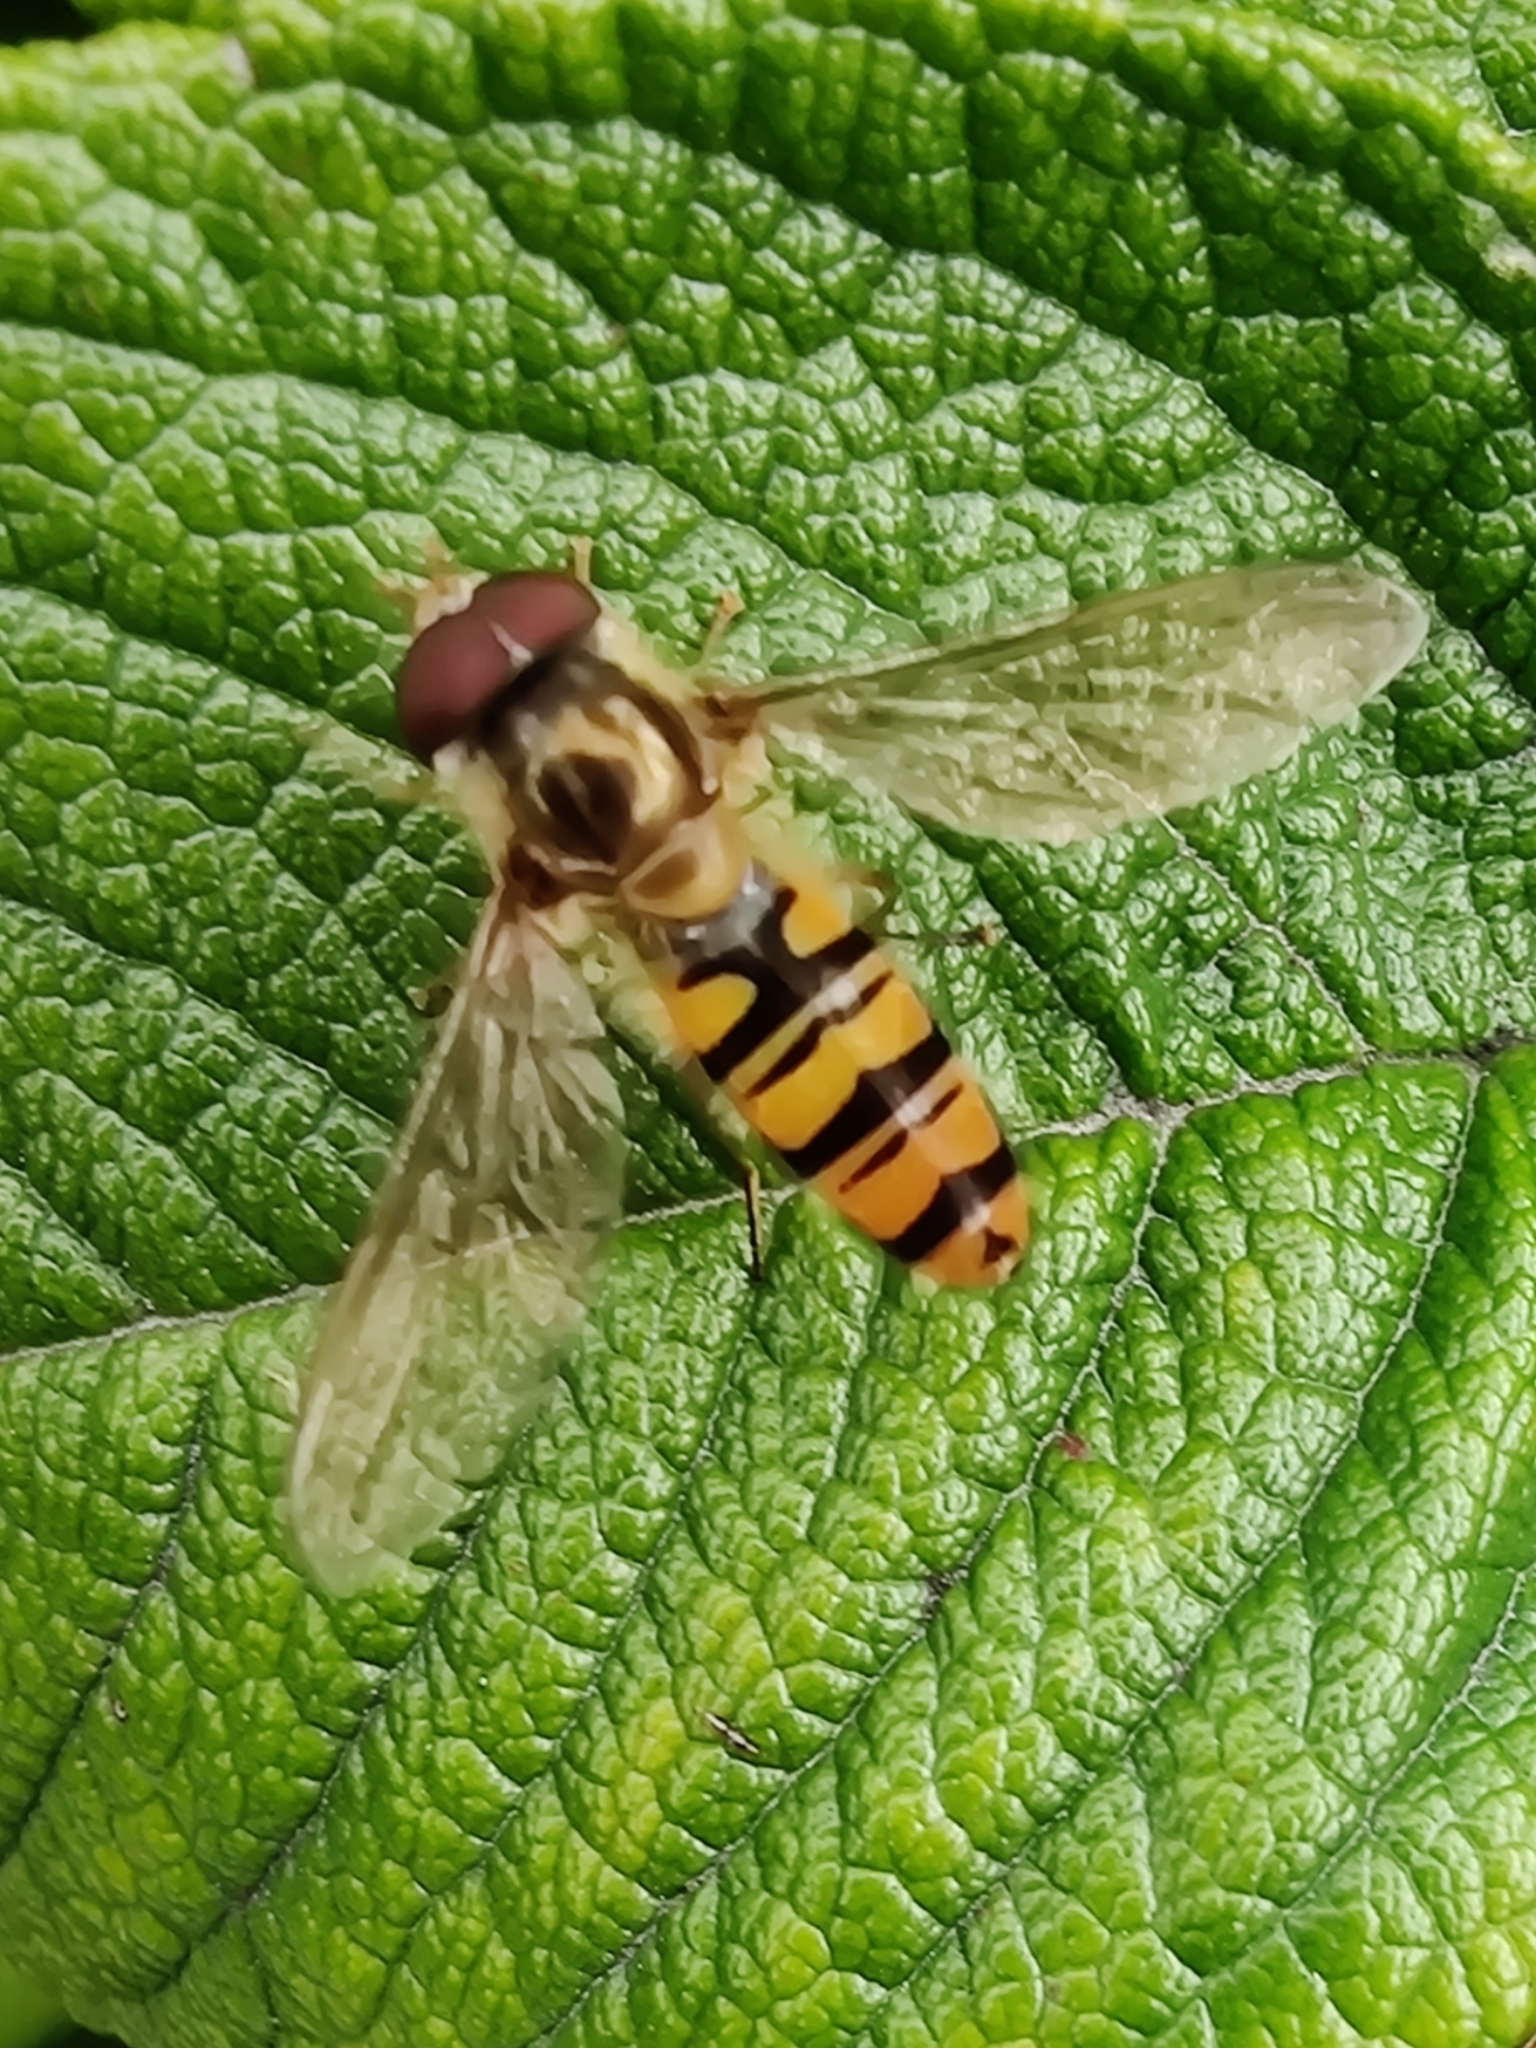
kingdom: Animalia
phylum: Arthropoda
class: Insecta
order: Diptera
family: Syrphidae
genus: Episyrphus
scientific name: Episyrphus balteatus
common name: Marmalade hoverfly
